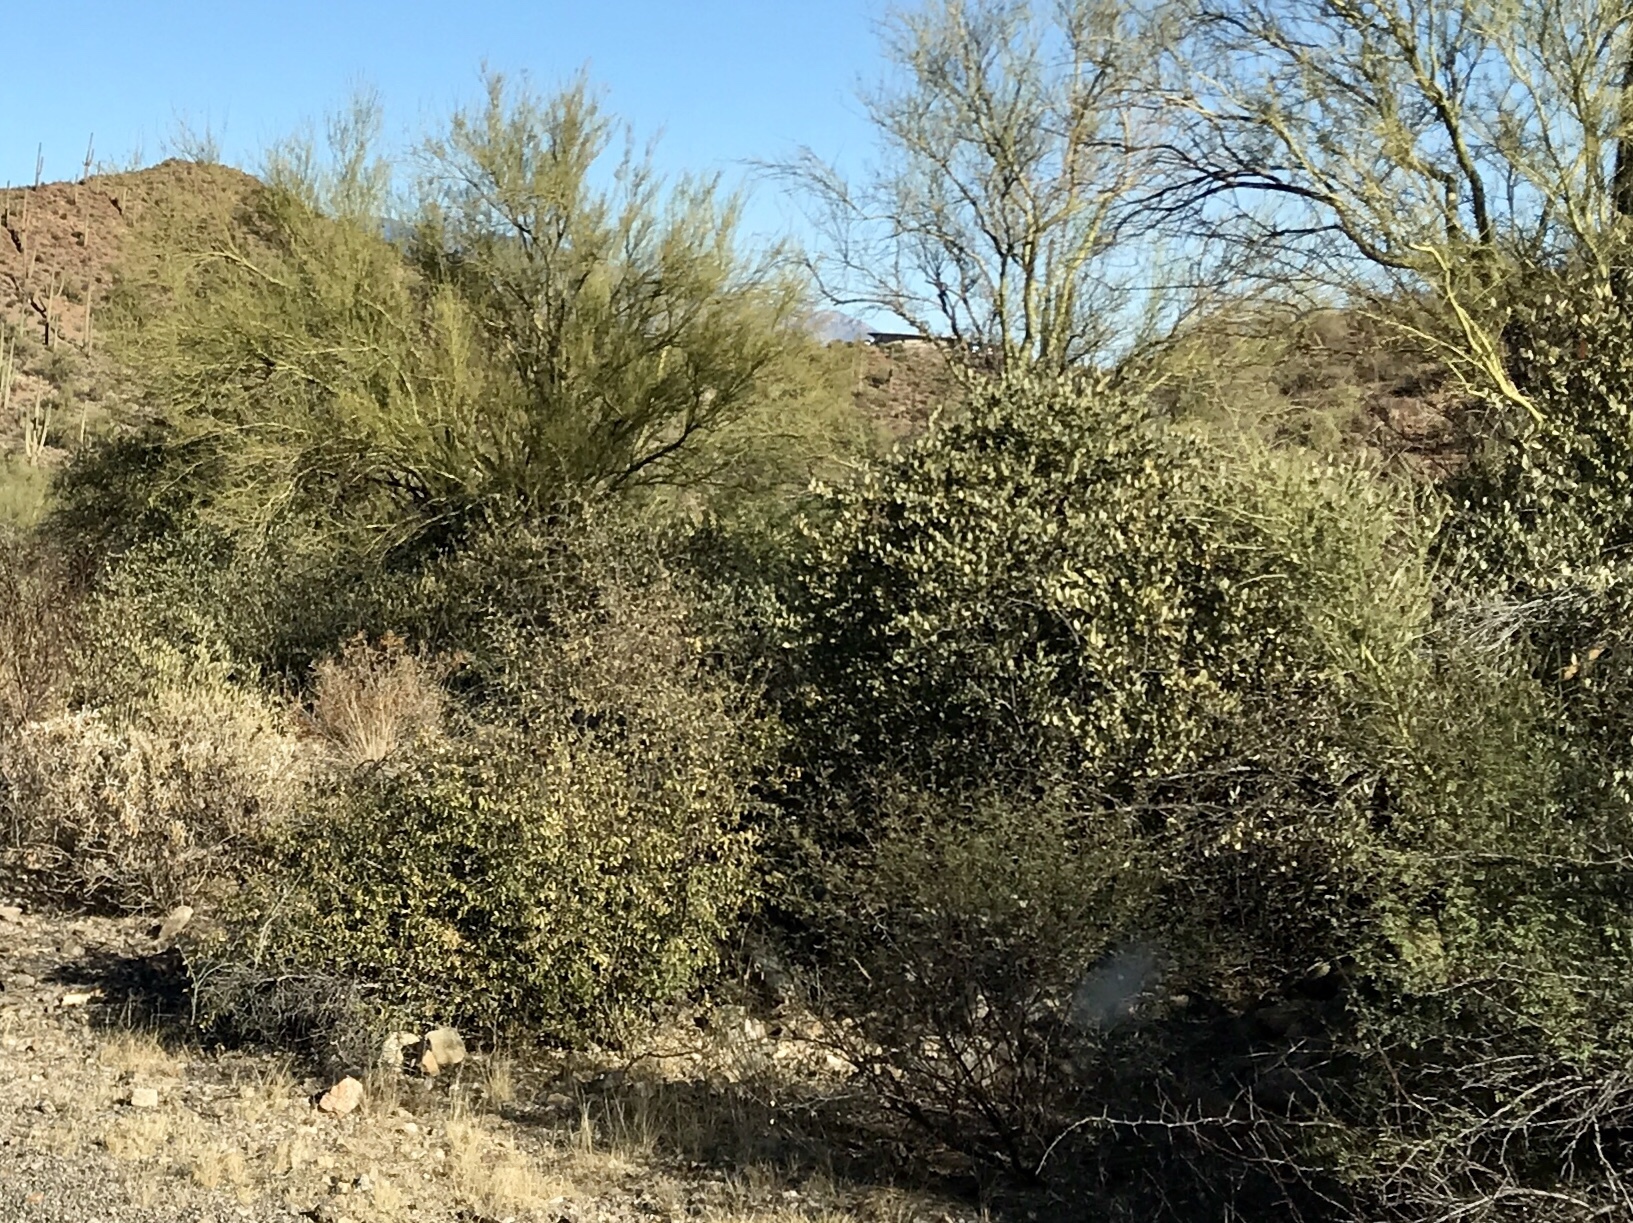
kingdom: Plantae
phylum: Tracheophyta
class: Magnoliopsida
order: Caryophyllales
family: Simmondsiaceae
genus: Simmondsia
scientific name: Simmondsia chinensis
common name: Jojoba
